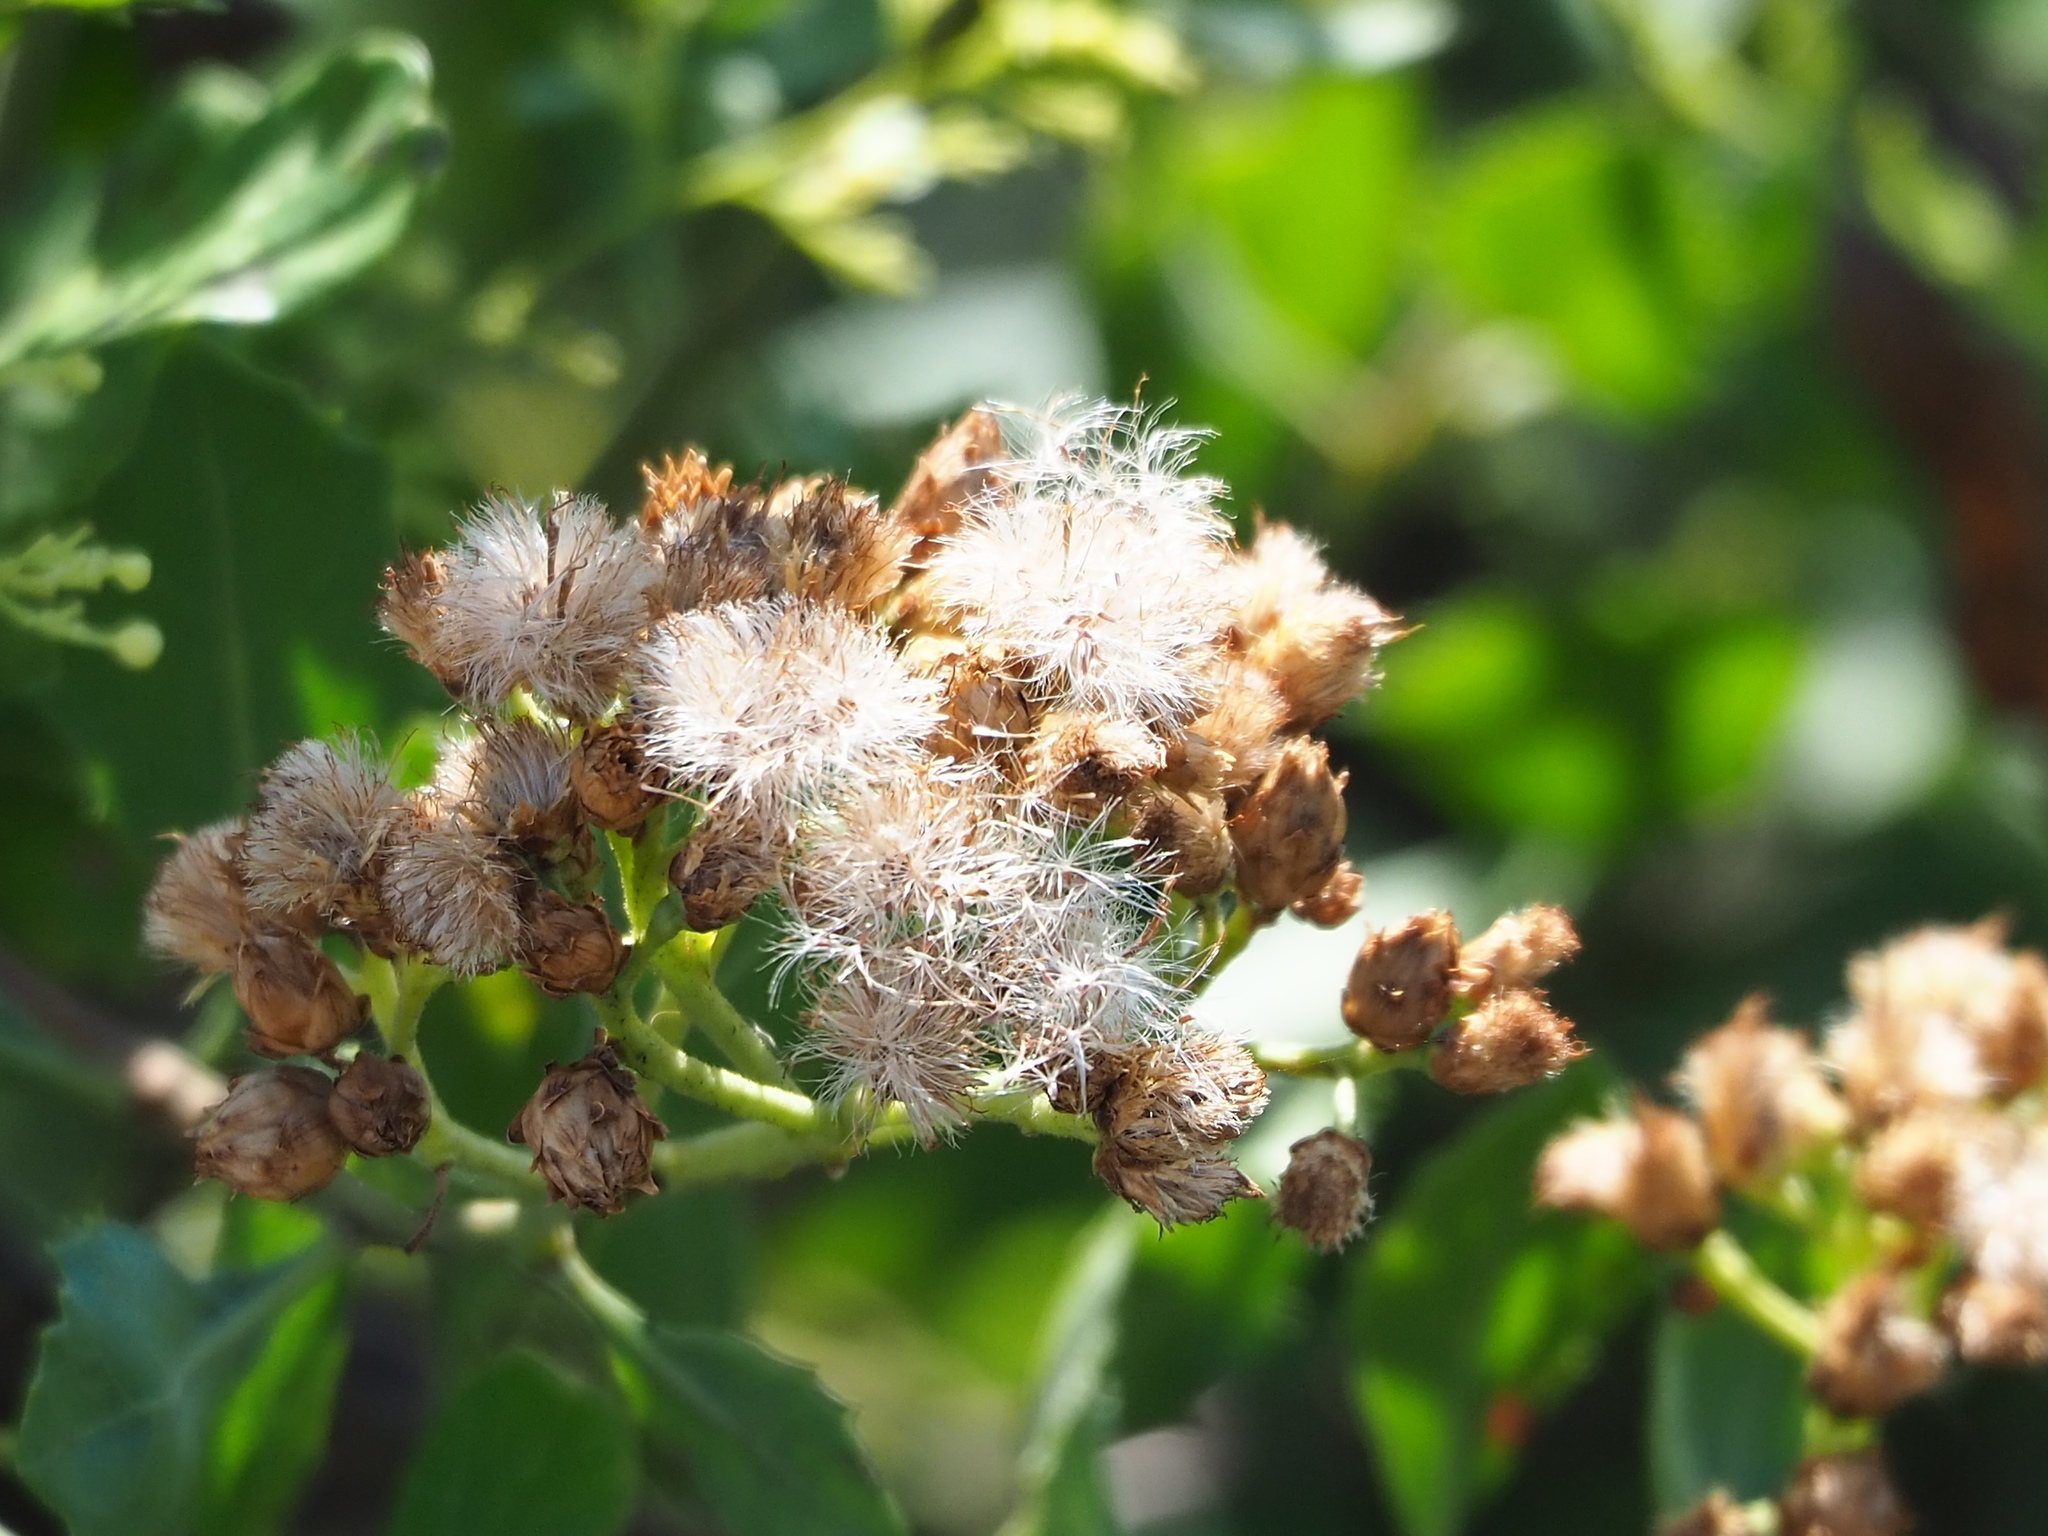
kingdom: Plantae
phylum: Tracheophyta
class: Magnoliopsida
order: Asterales
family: Asteraceae
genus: Pluchea
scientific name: Pluchea indica
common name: Indian fleabane
